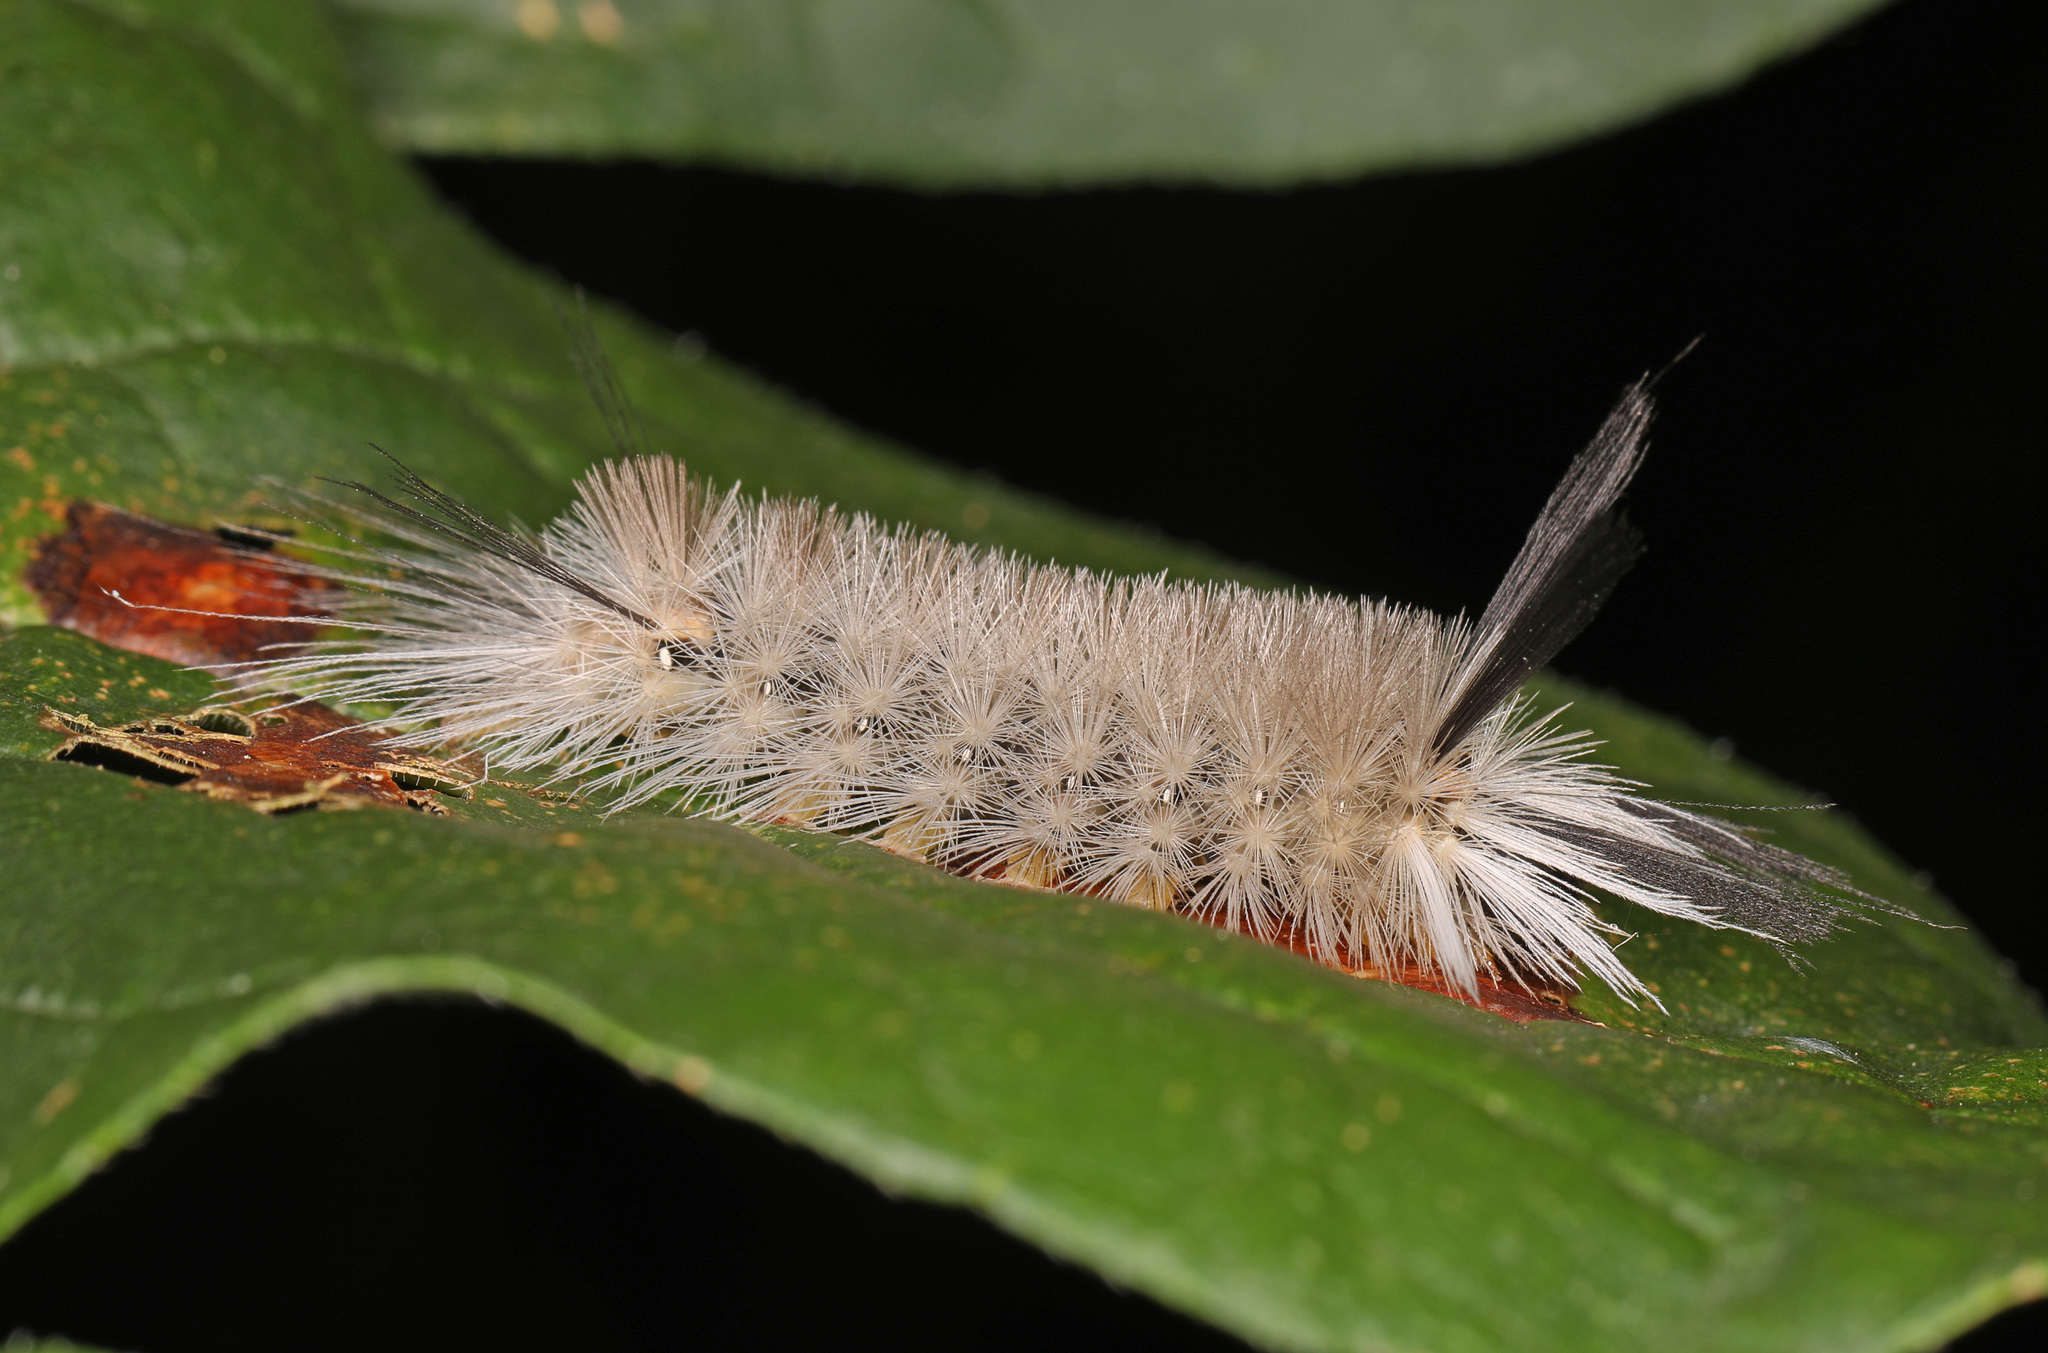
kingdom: Animalia
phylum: Arthropoda
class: Insecta
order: Lepidoptera
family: Erebidae
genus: Halysidota
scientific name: Halysidota tessellaris
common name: Banded tussock moth
